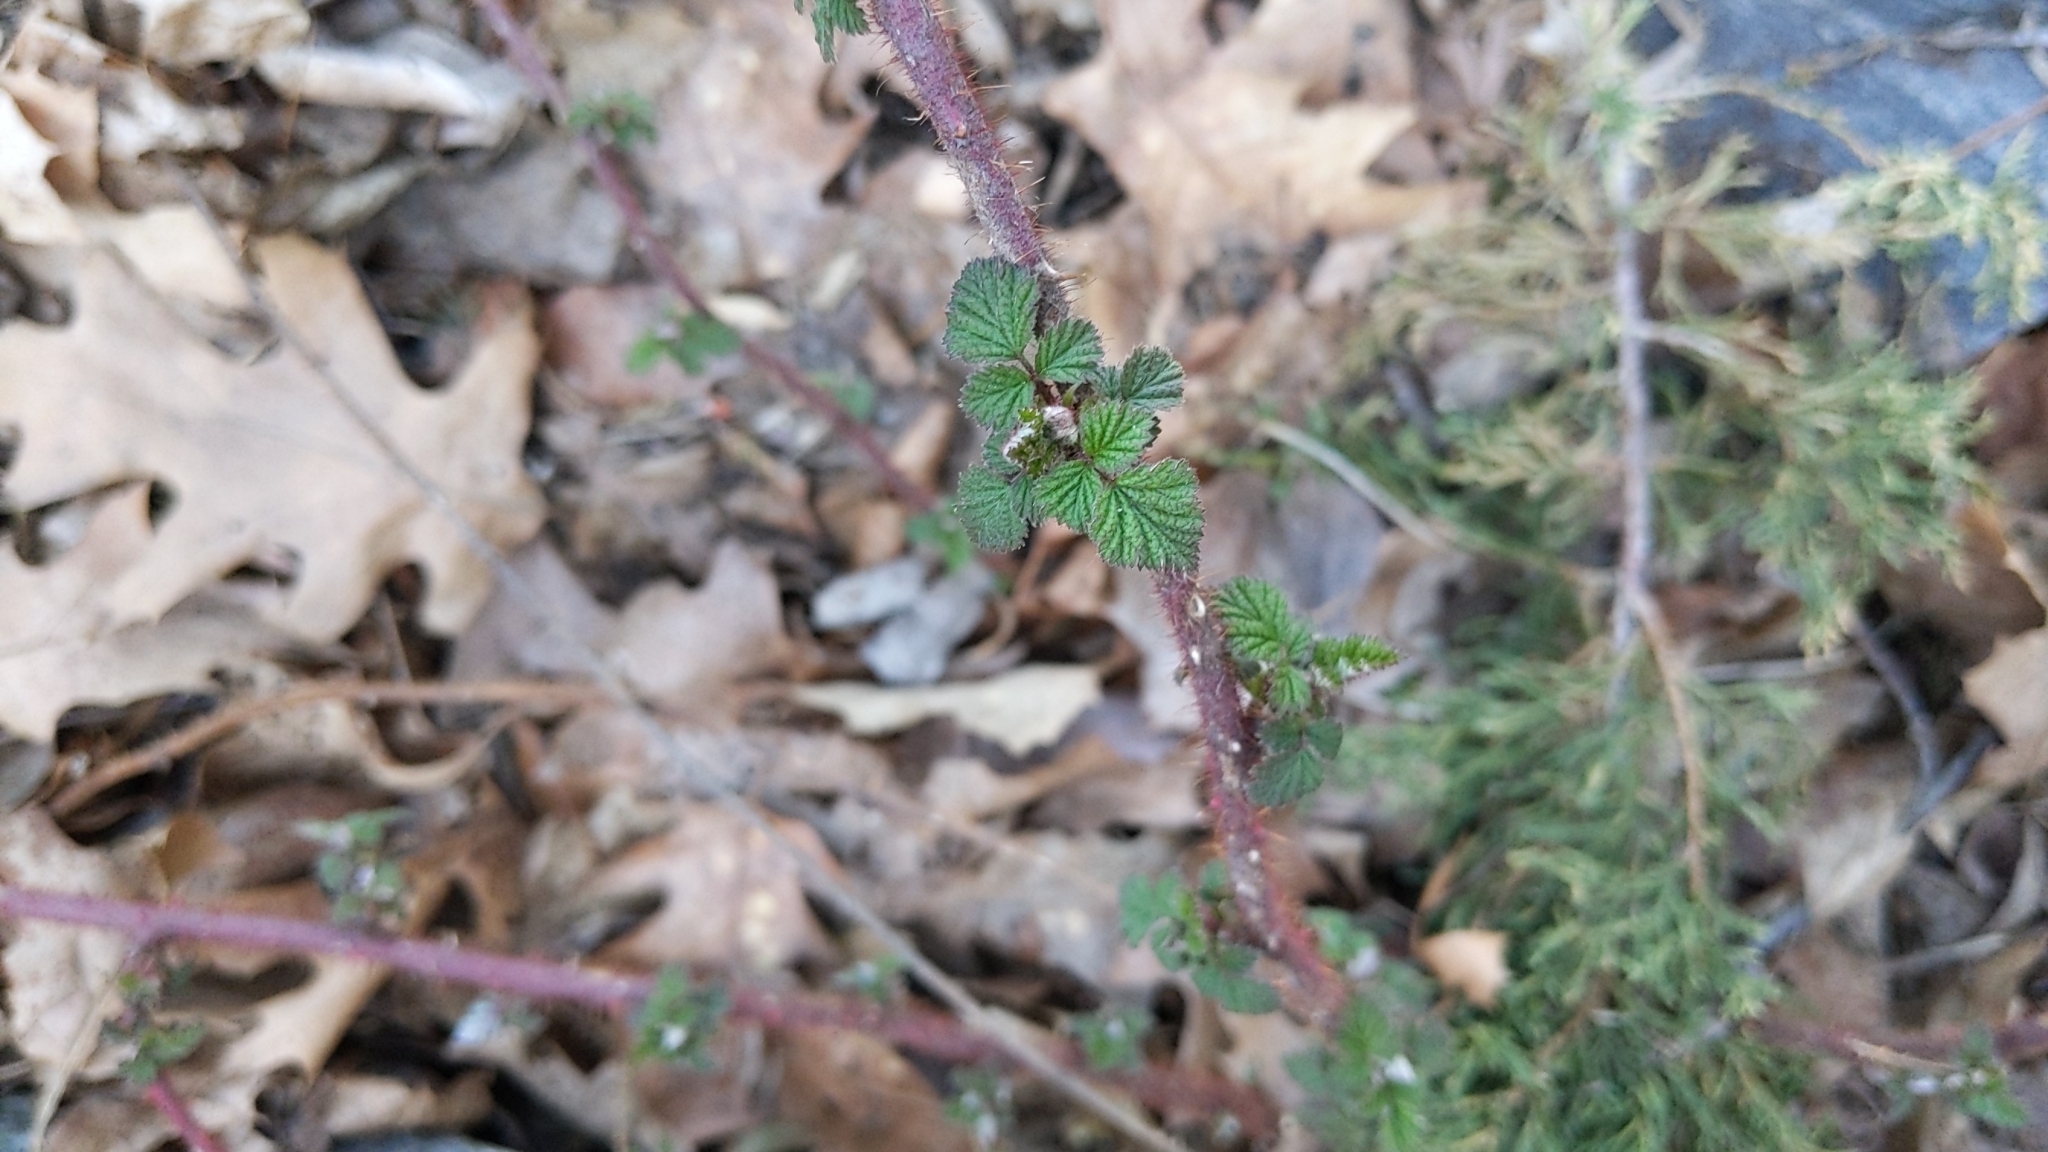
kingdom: Plantae
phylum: Tracheophyta
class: Magnoliopsida
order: Rosales
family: Rosaceae
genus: Rubus
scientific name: Rubus phoenicolasius
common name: Japanese wineberry
